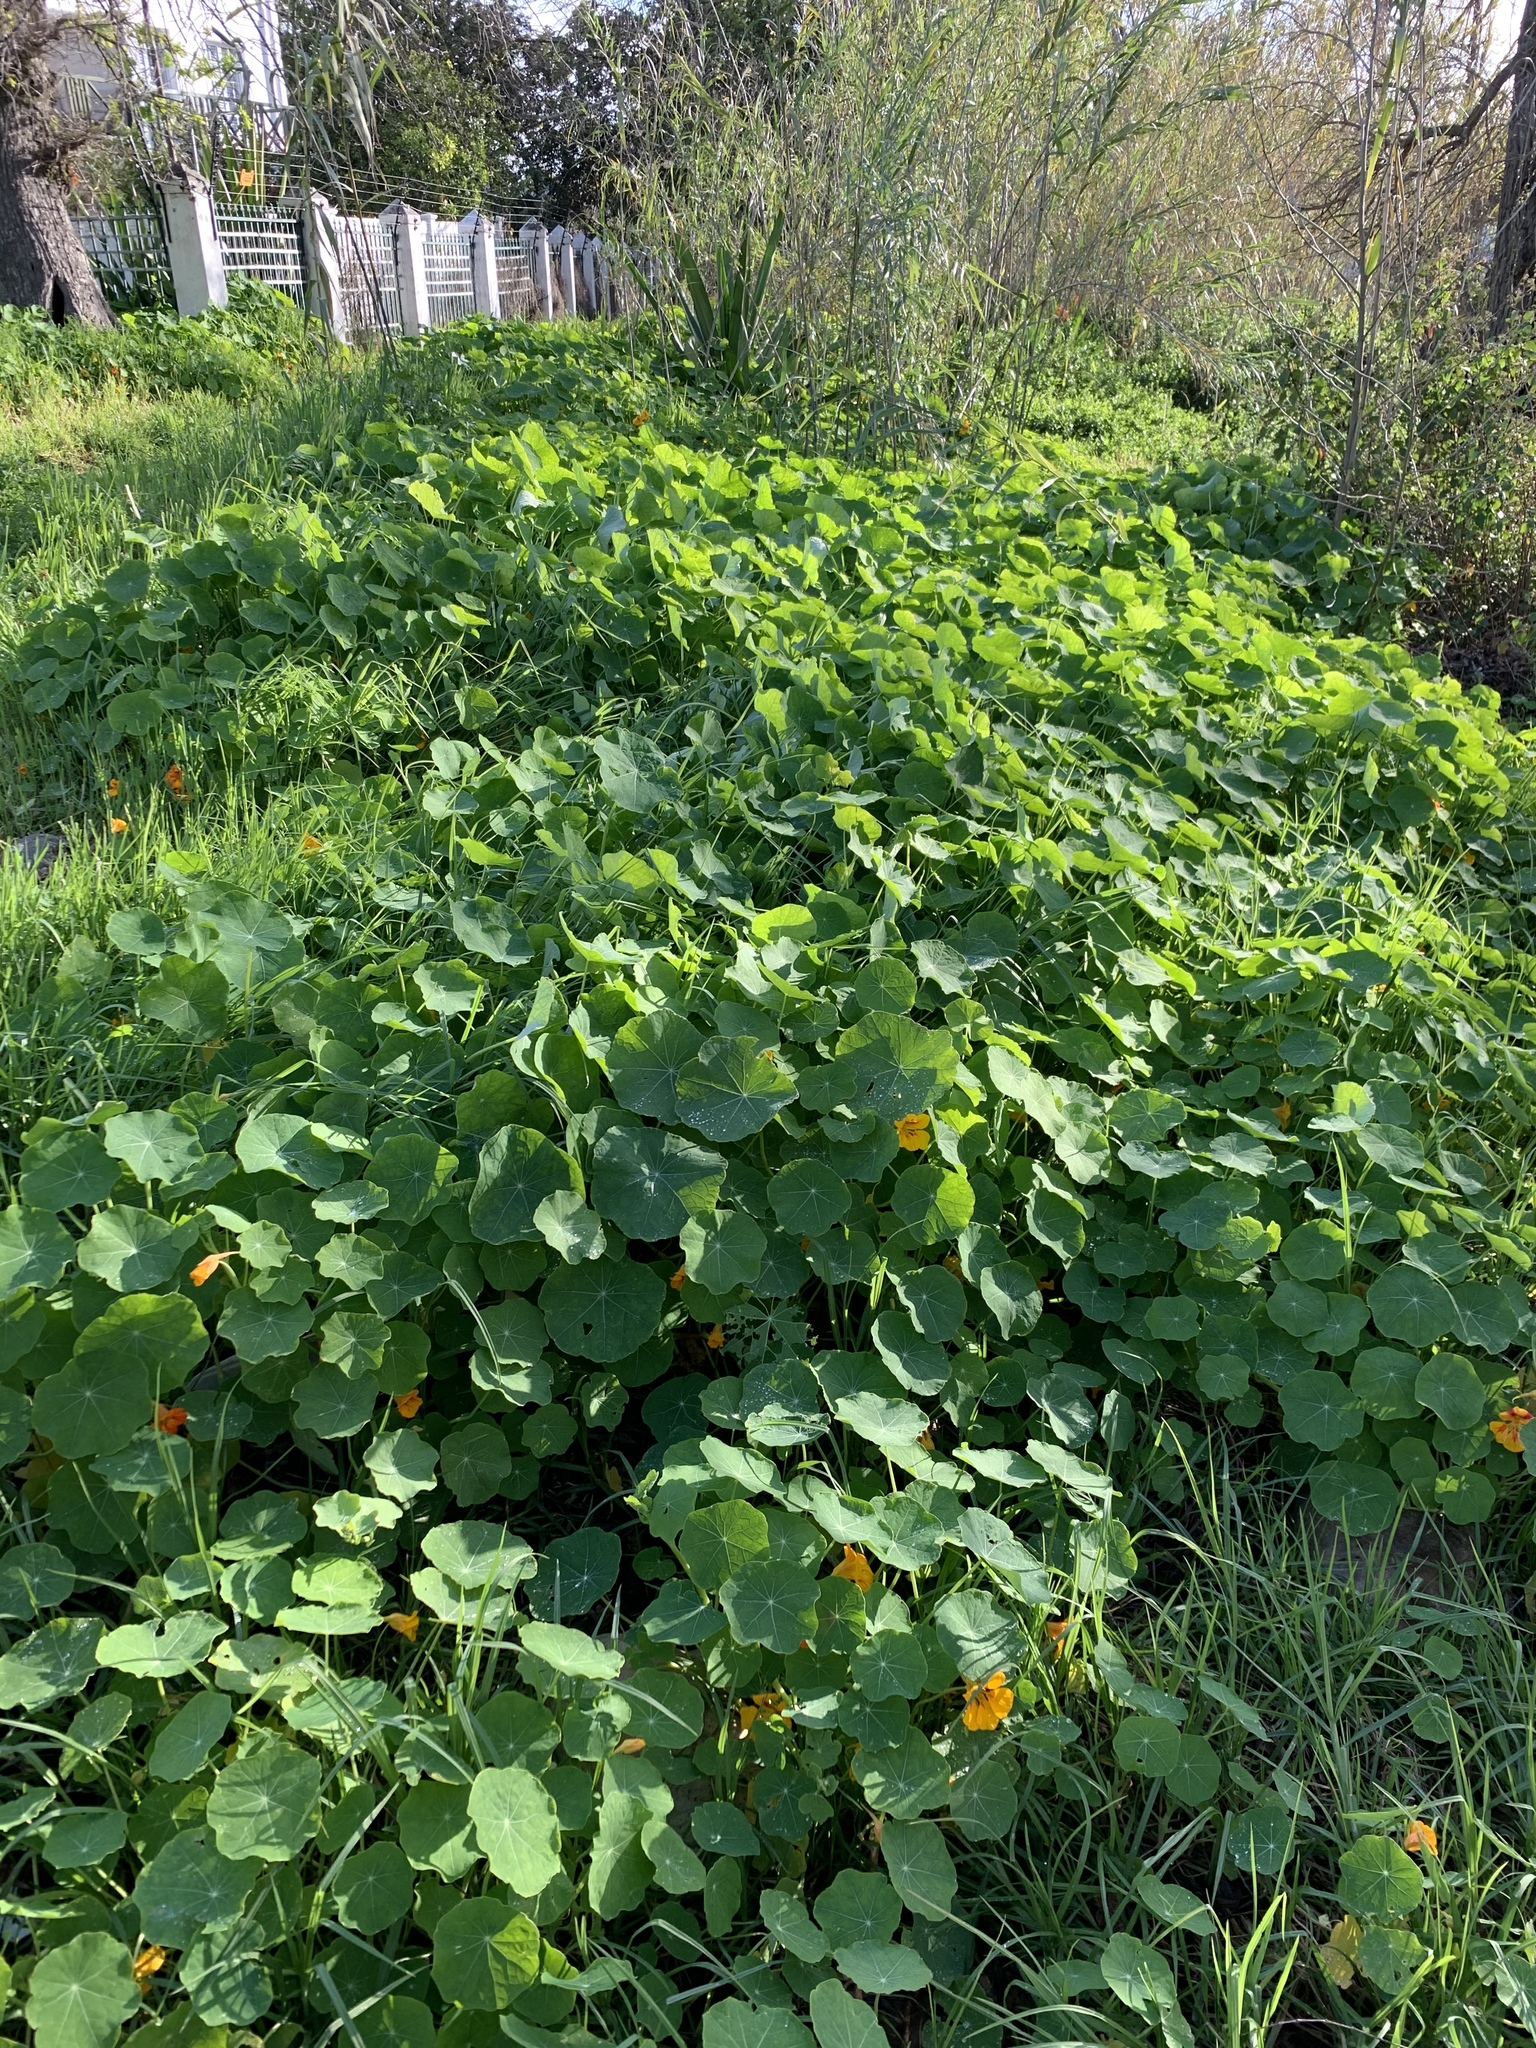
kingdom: Plantae
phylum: Tracheophyta
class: Magnoliopsida
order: Brassicales
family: Tropaeolaceae
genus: Tropaeolum
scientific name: Tropaeolum majus
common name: Nasturtium
